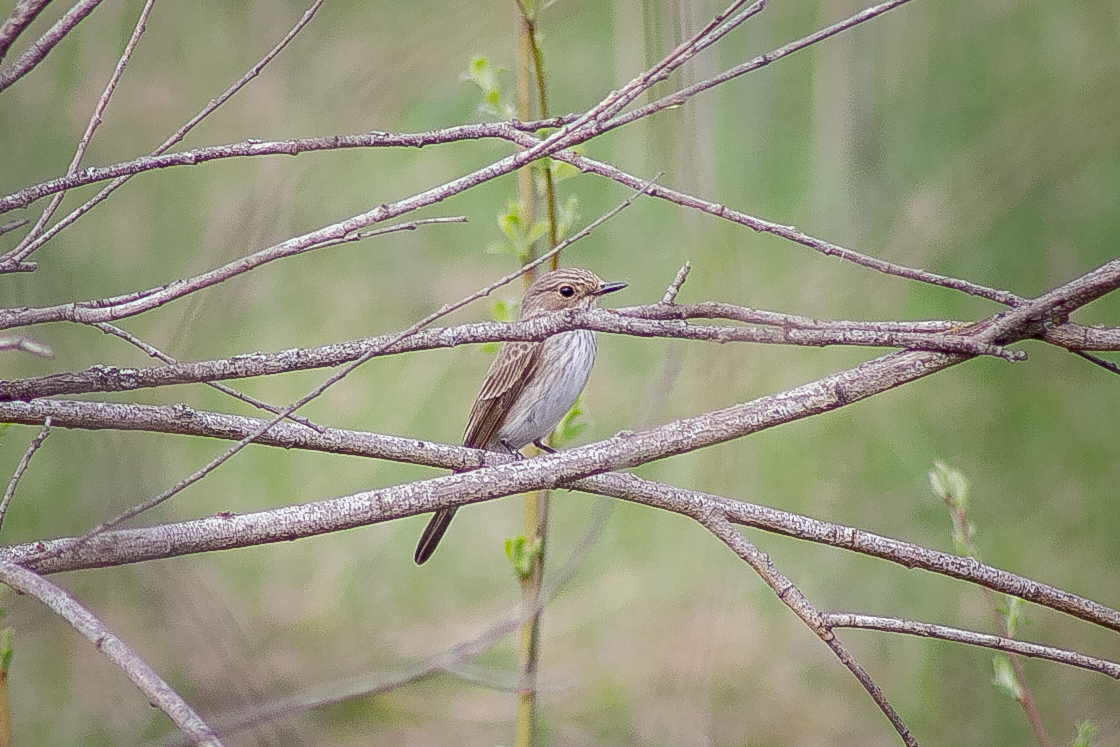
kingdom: Animalia
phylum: Chordata
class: Aves
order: Passeriformes
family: Muscicapidae
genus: Muscicapa
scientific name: Muscicapa striata
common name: Spotted flycatcher
